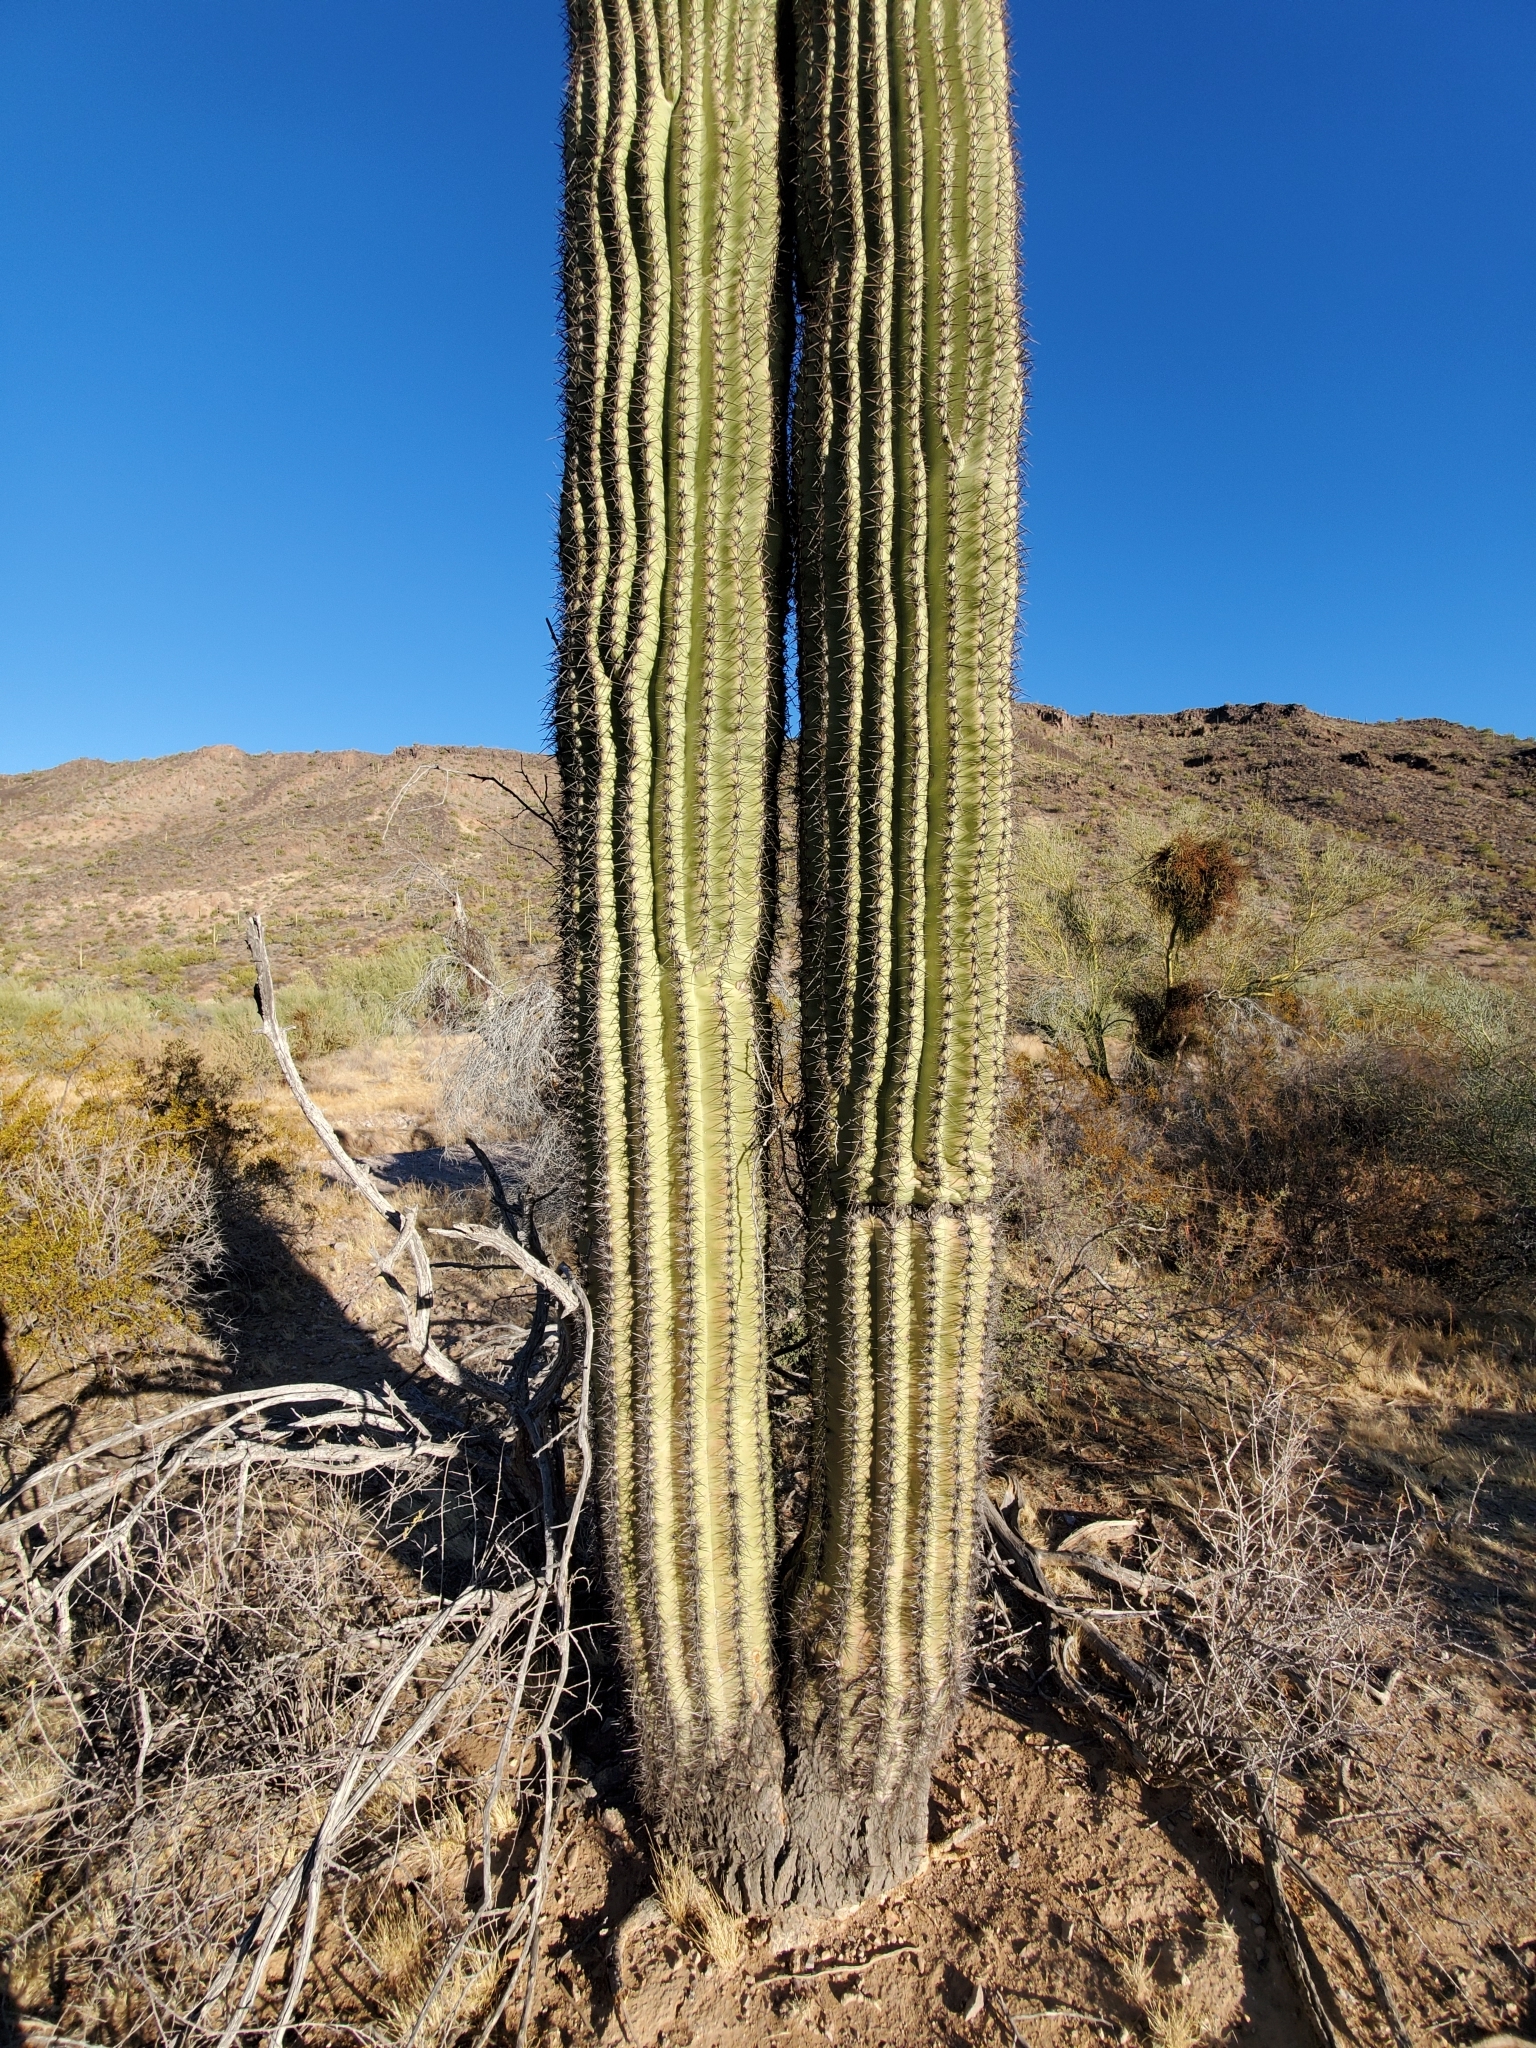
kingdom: Plantae
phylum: Tracheophyta
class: Magnoliopsida
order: Caryophyllales
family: Cactaceae
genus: Carnegiea
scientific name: Carnegiea gigantea
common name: Saguaro
